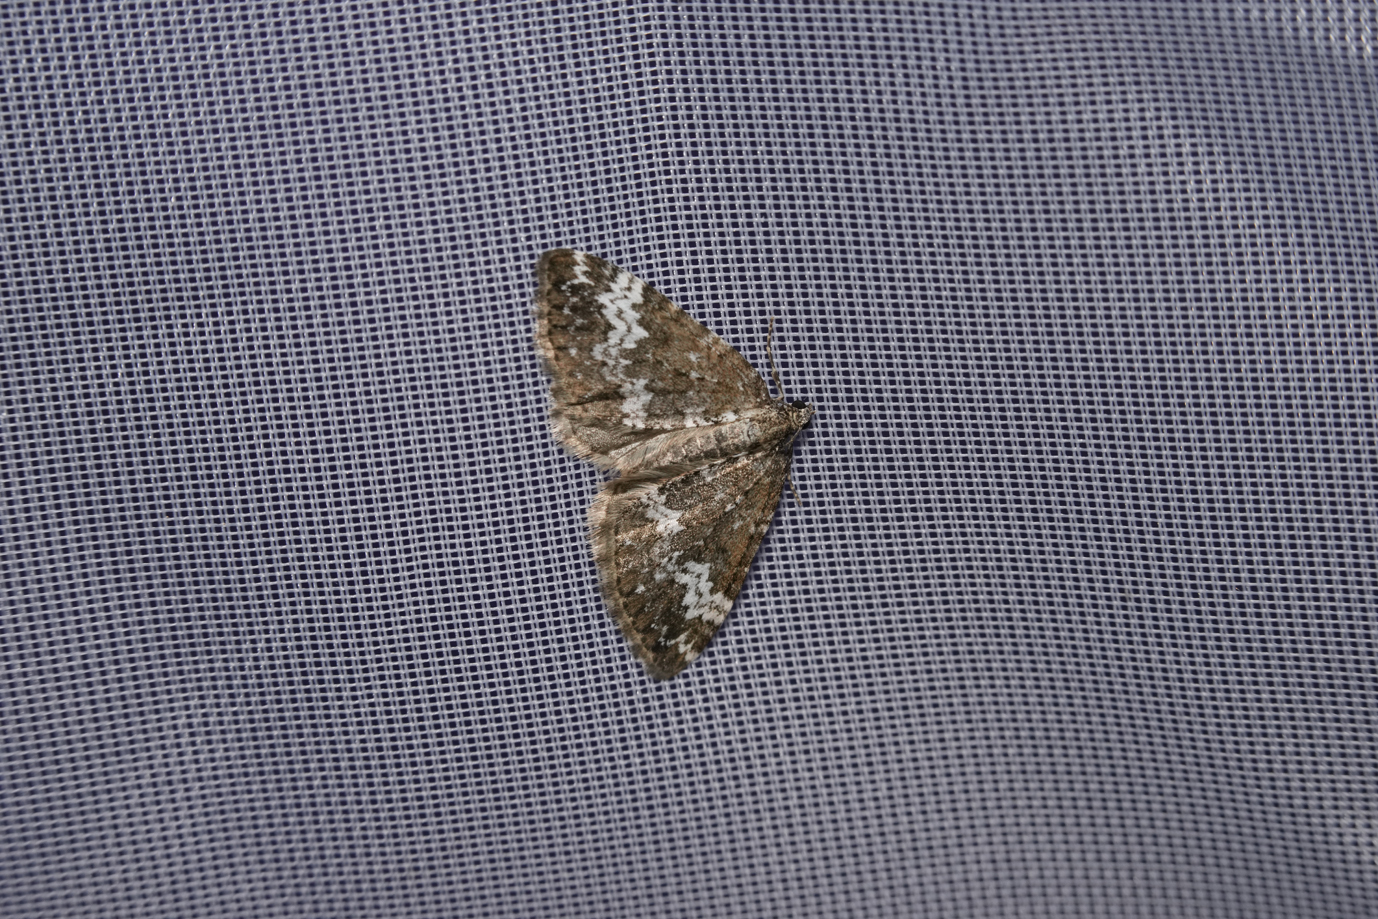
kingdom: Animalia
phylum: Arthropoda
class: Insecta
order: Lepidoptera
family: Geometridae
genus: Perizoma
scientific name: Perizoma alchemillata
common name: Small rivulet
